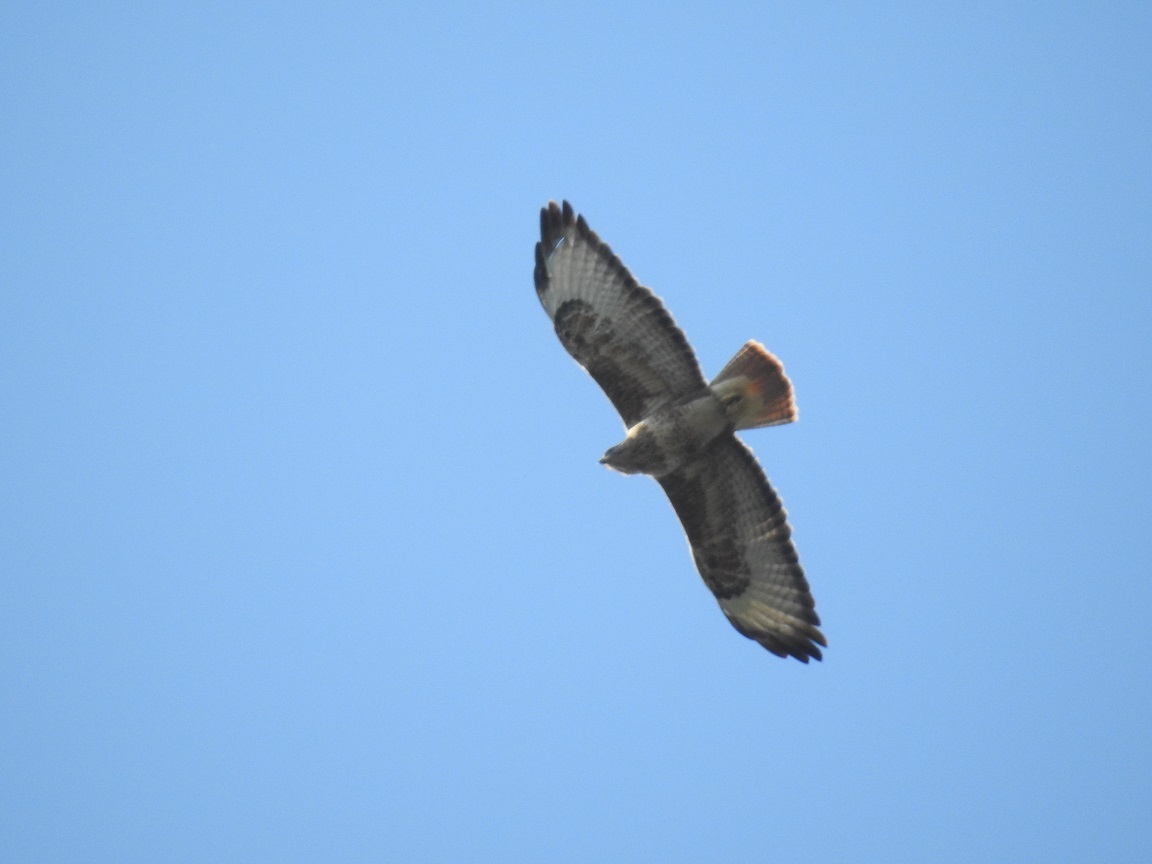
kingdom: Animalia
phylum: Chordata
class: Aves
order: Accipitriformes
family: Accipitridae
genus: Buteo
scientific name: Buteo buteo
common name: Common buzzard
